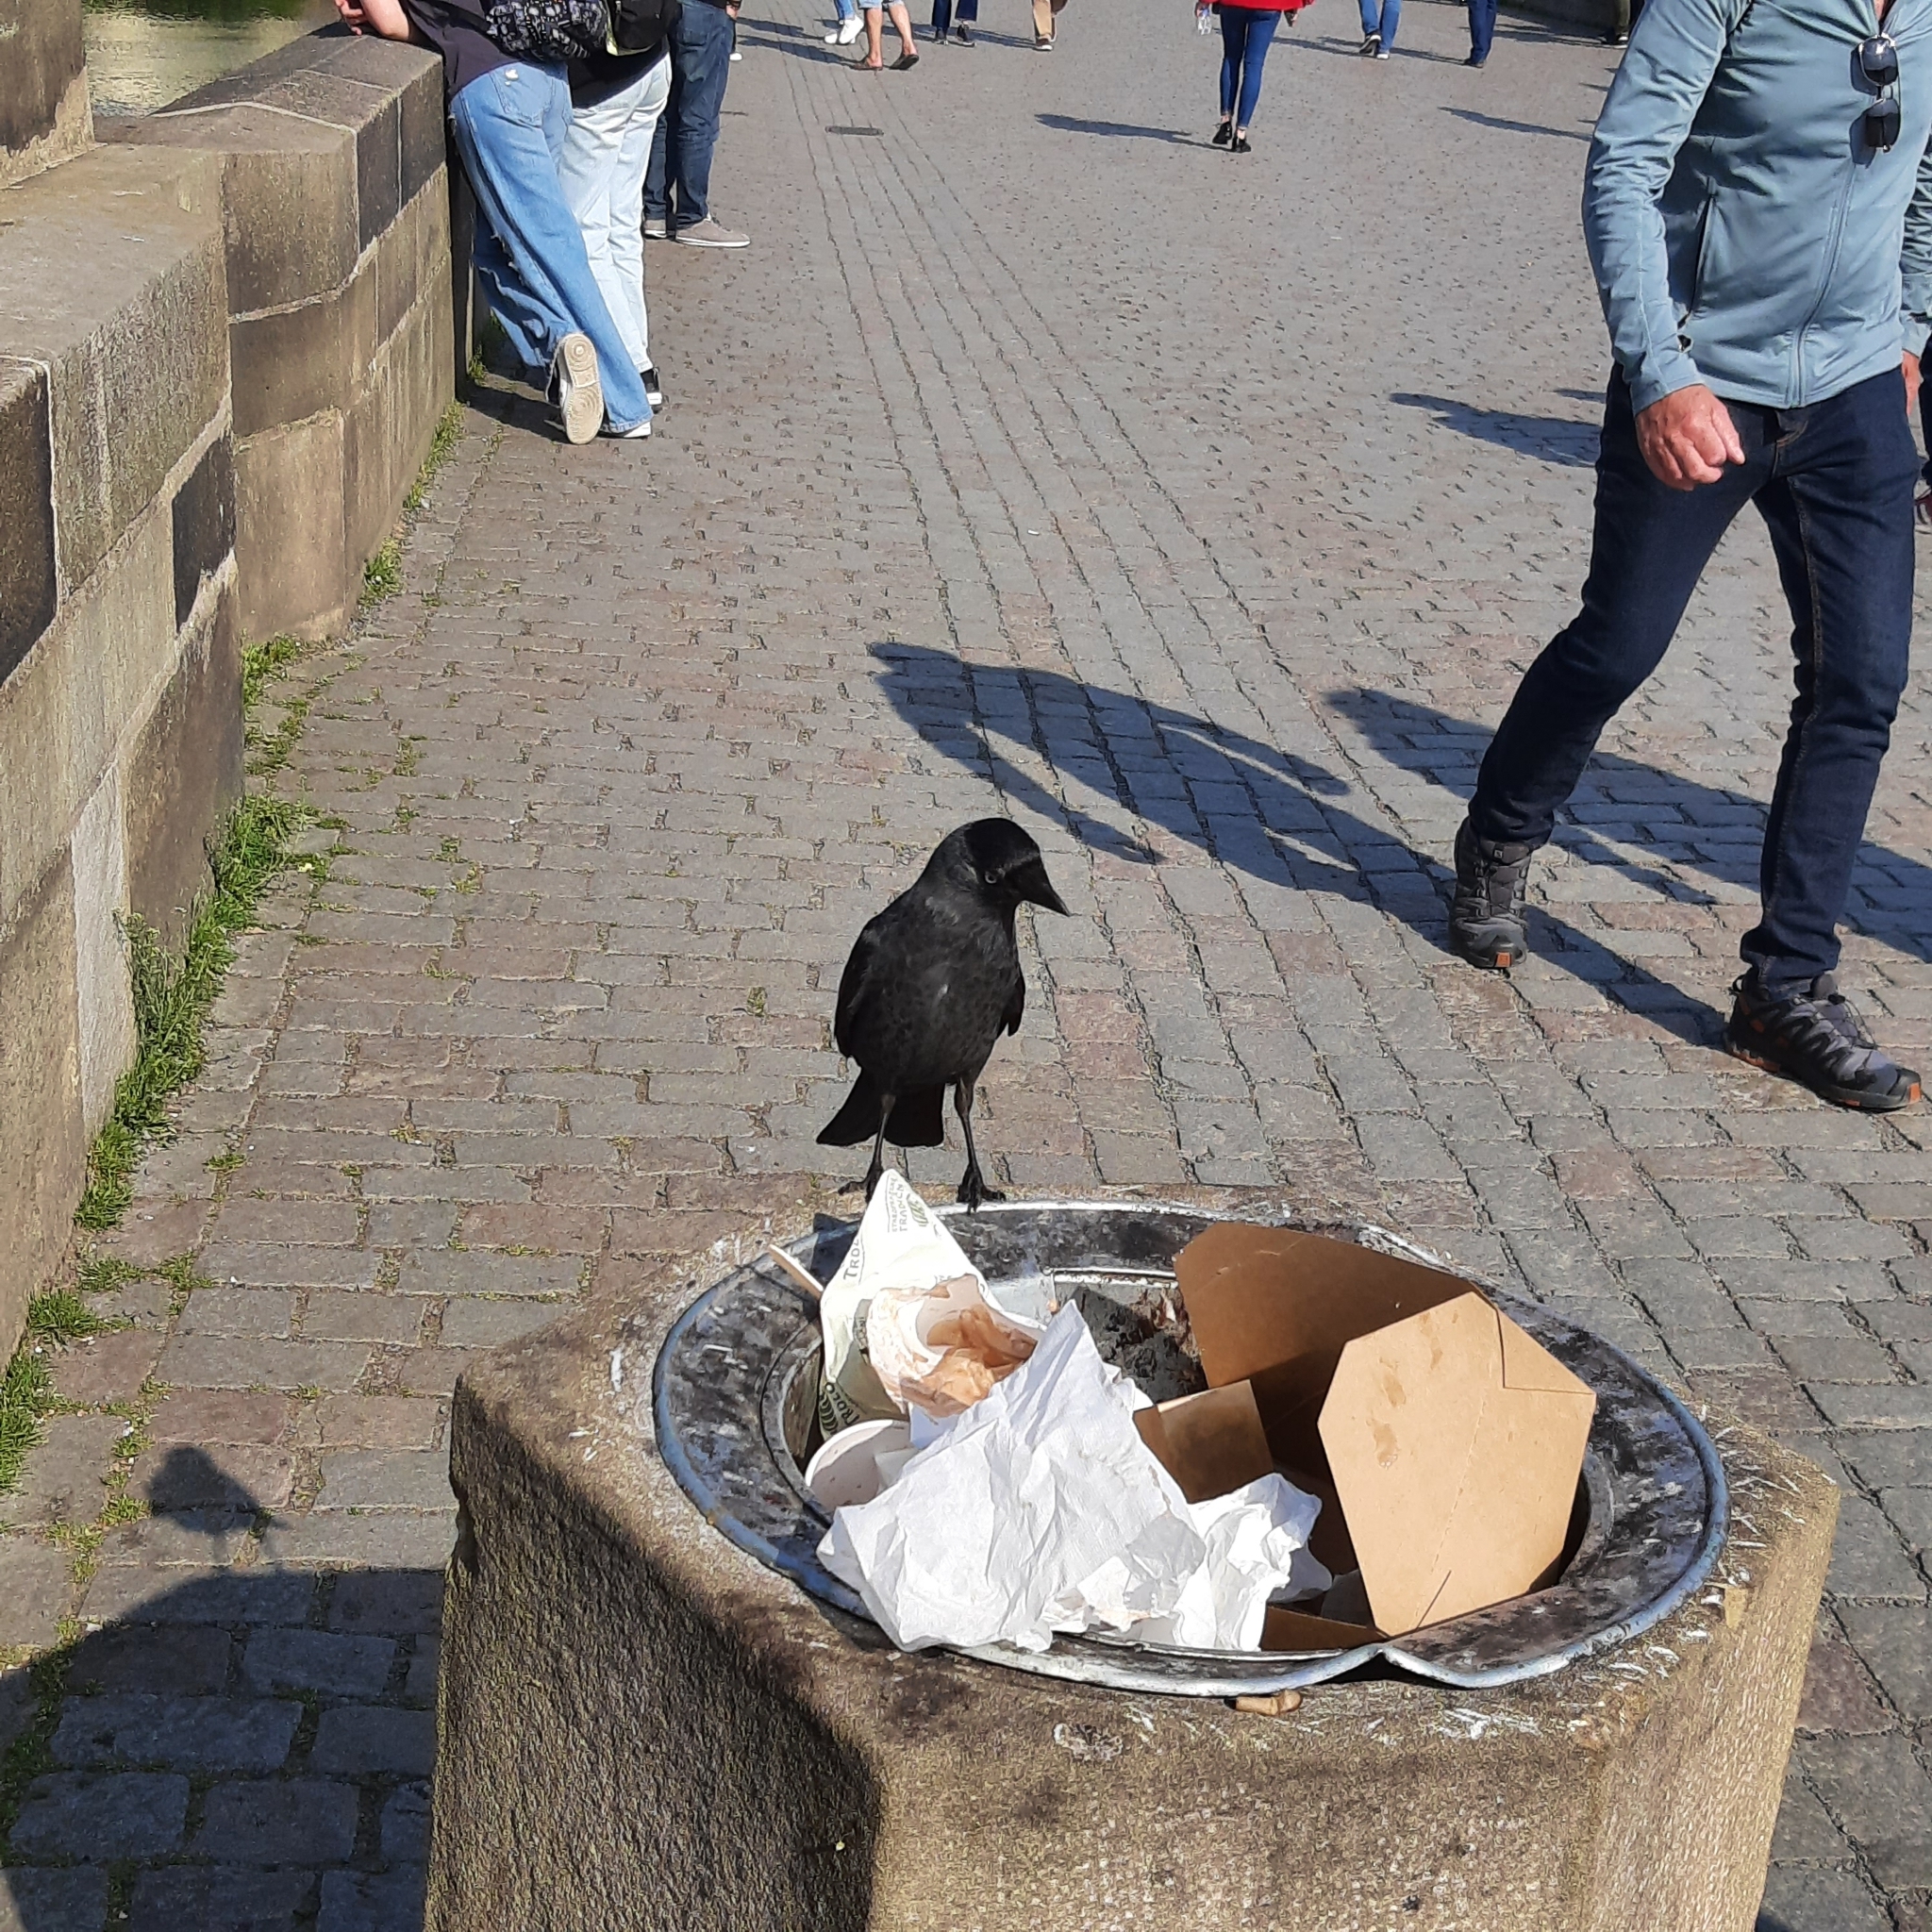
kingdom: Animalia
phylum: Chordata
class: Aves
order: Passeriformes
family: Corvidae
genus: Coloeus
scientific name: Coloeus monedula
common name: Western jackdaw
